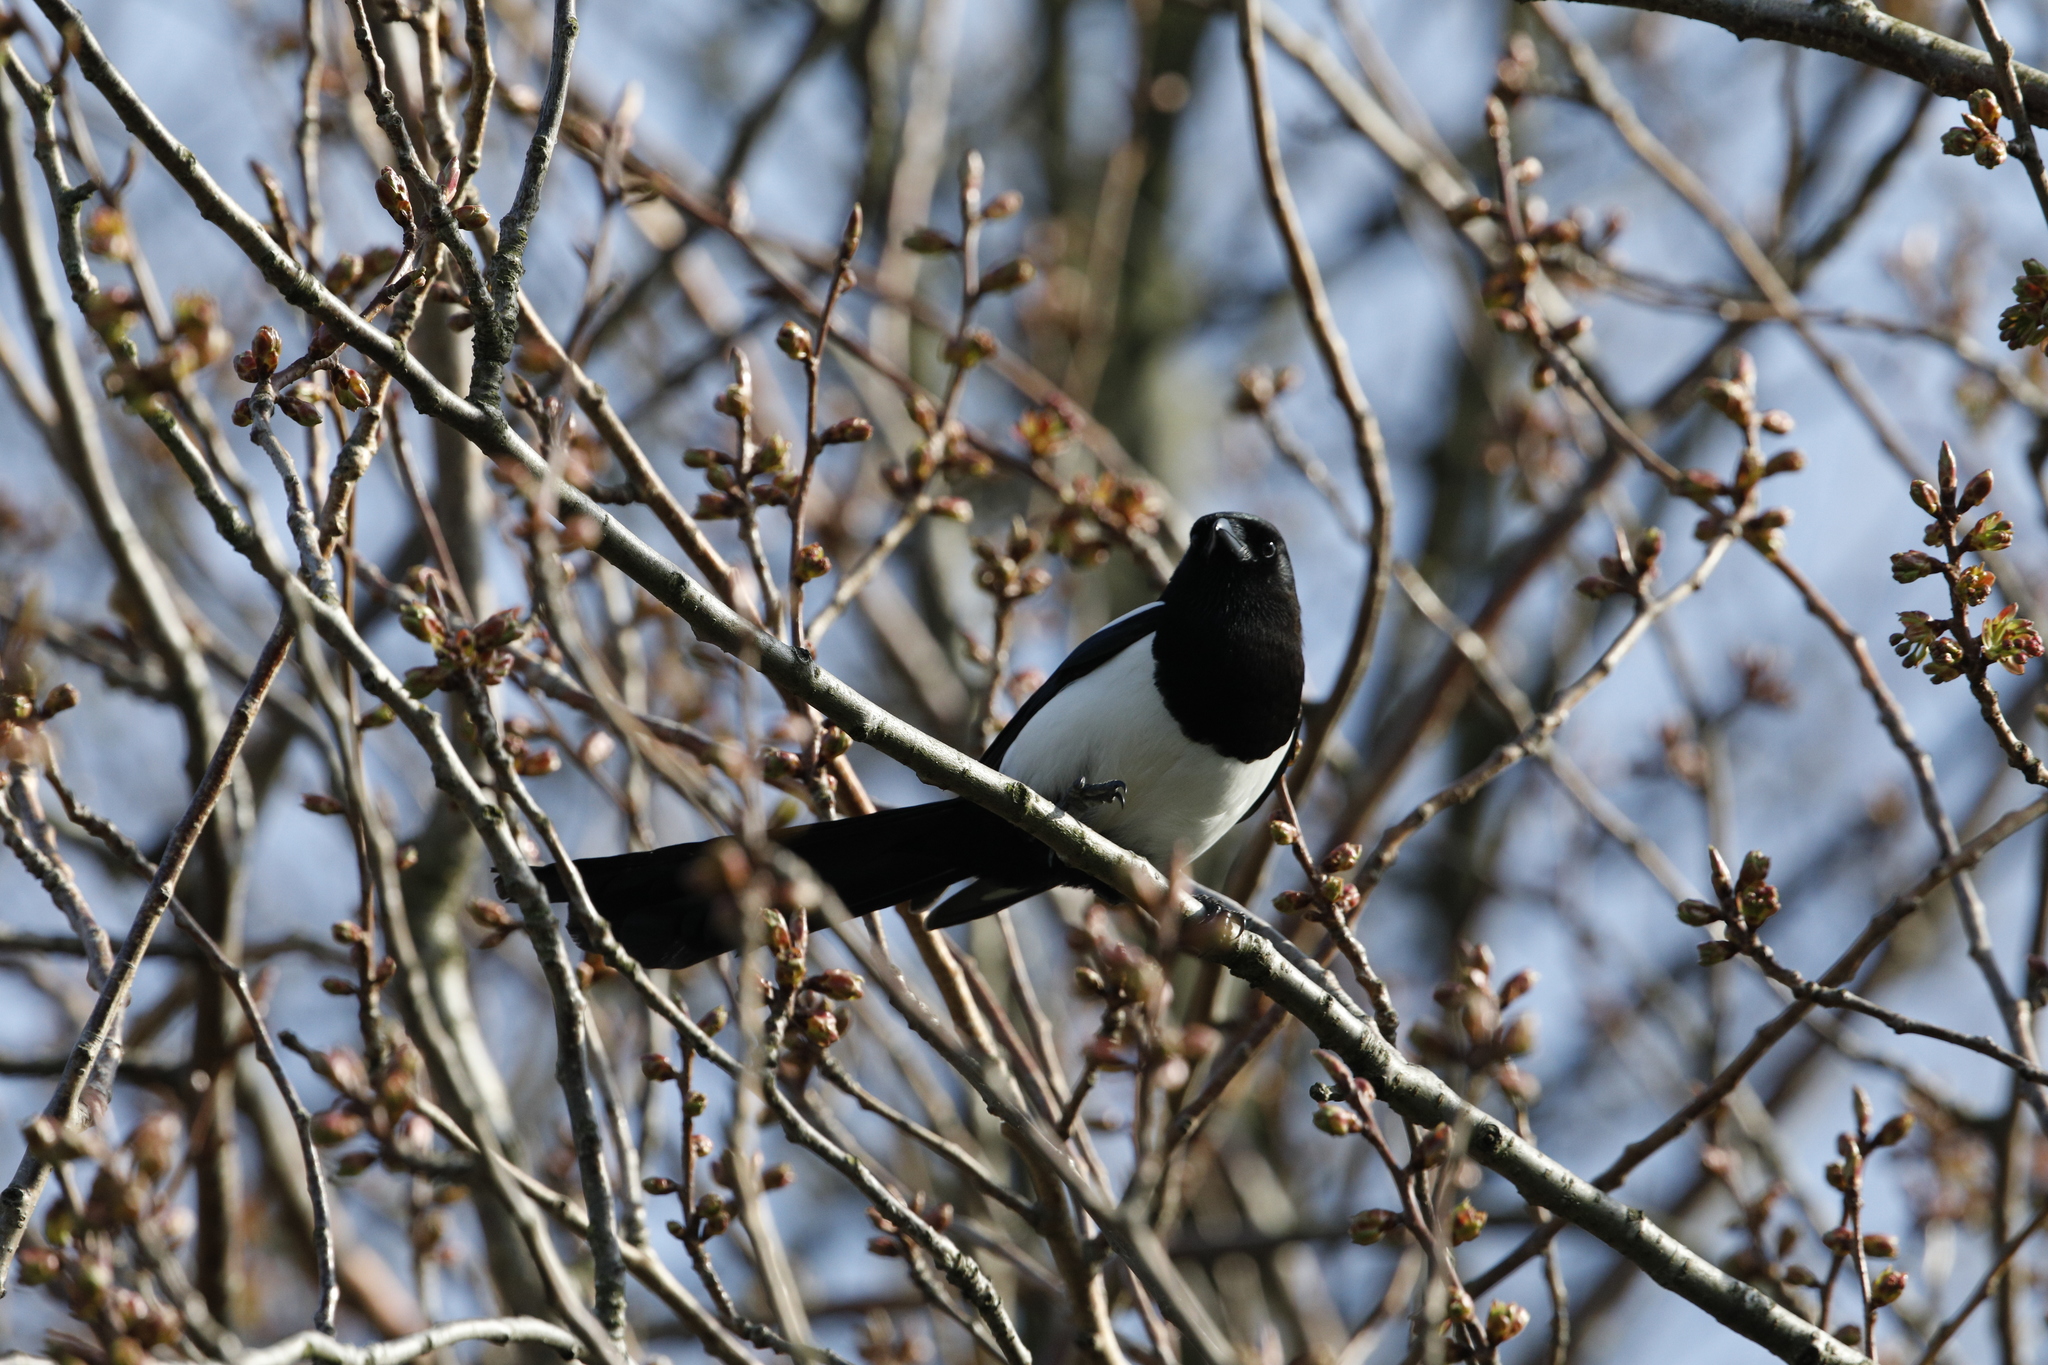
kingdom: Animalia
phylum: Chordata
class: Aves
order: Passeriformes
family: Corvidae
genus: Pica
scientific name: Pica pica
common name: Eurasian magpie
